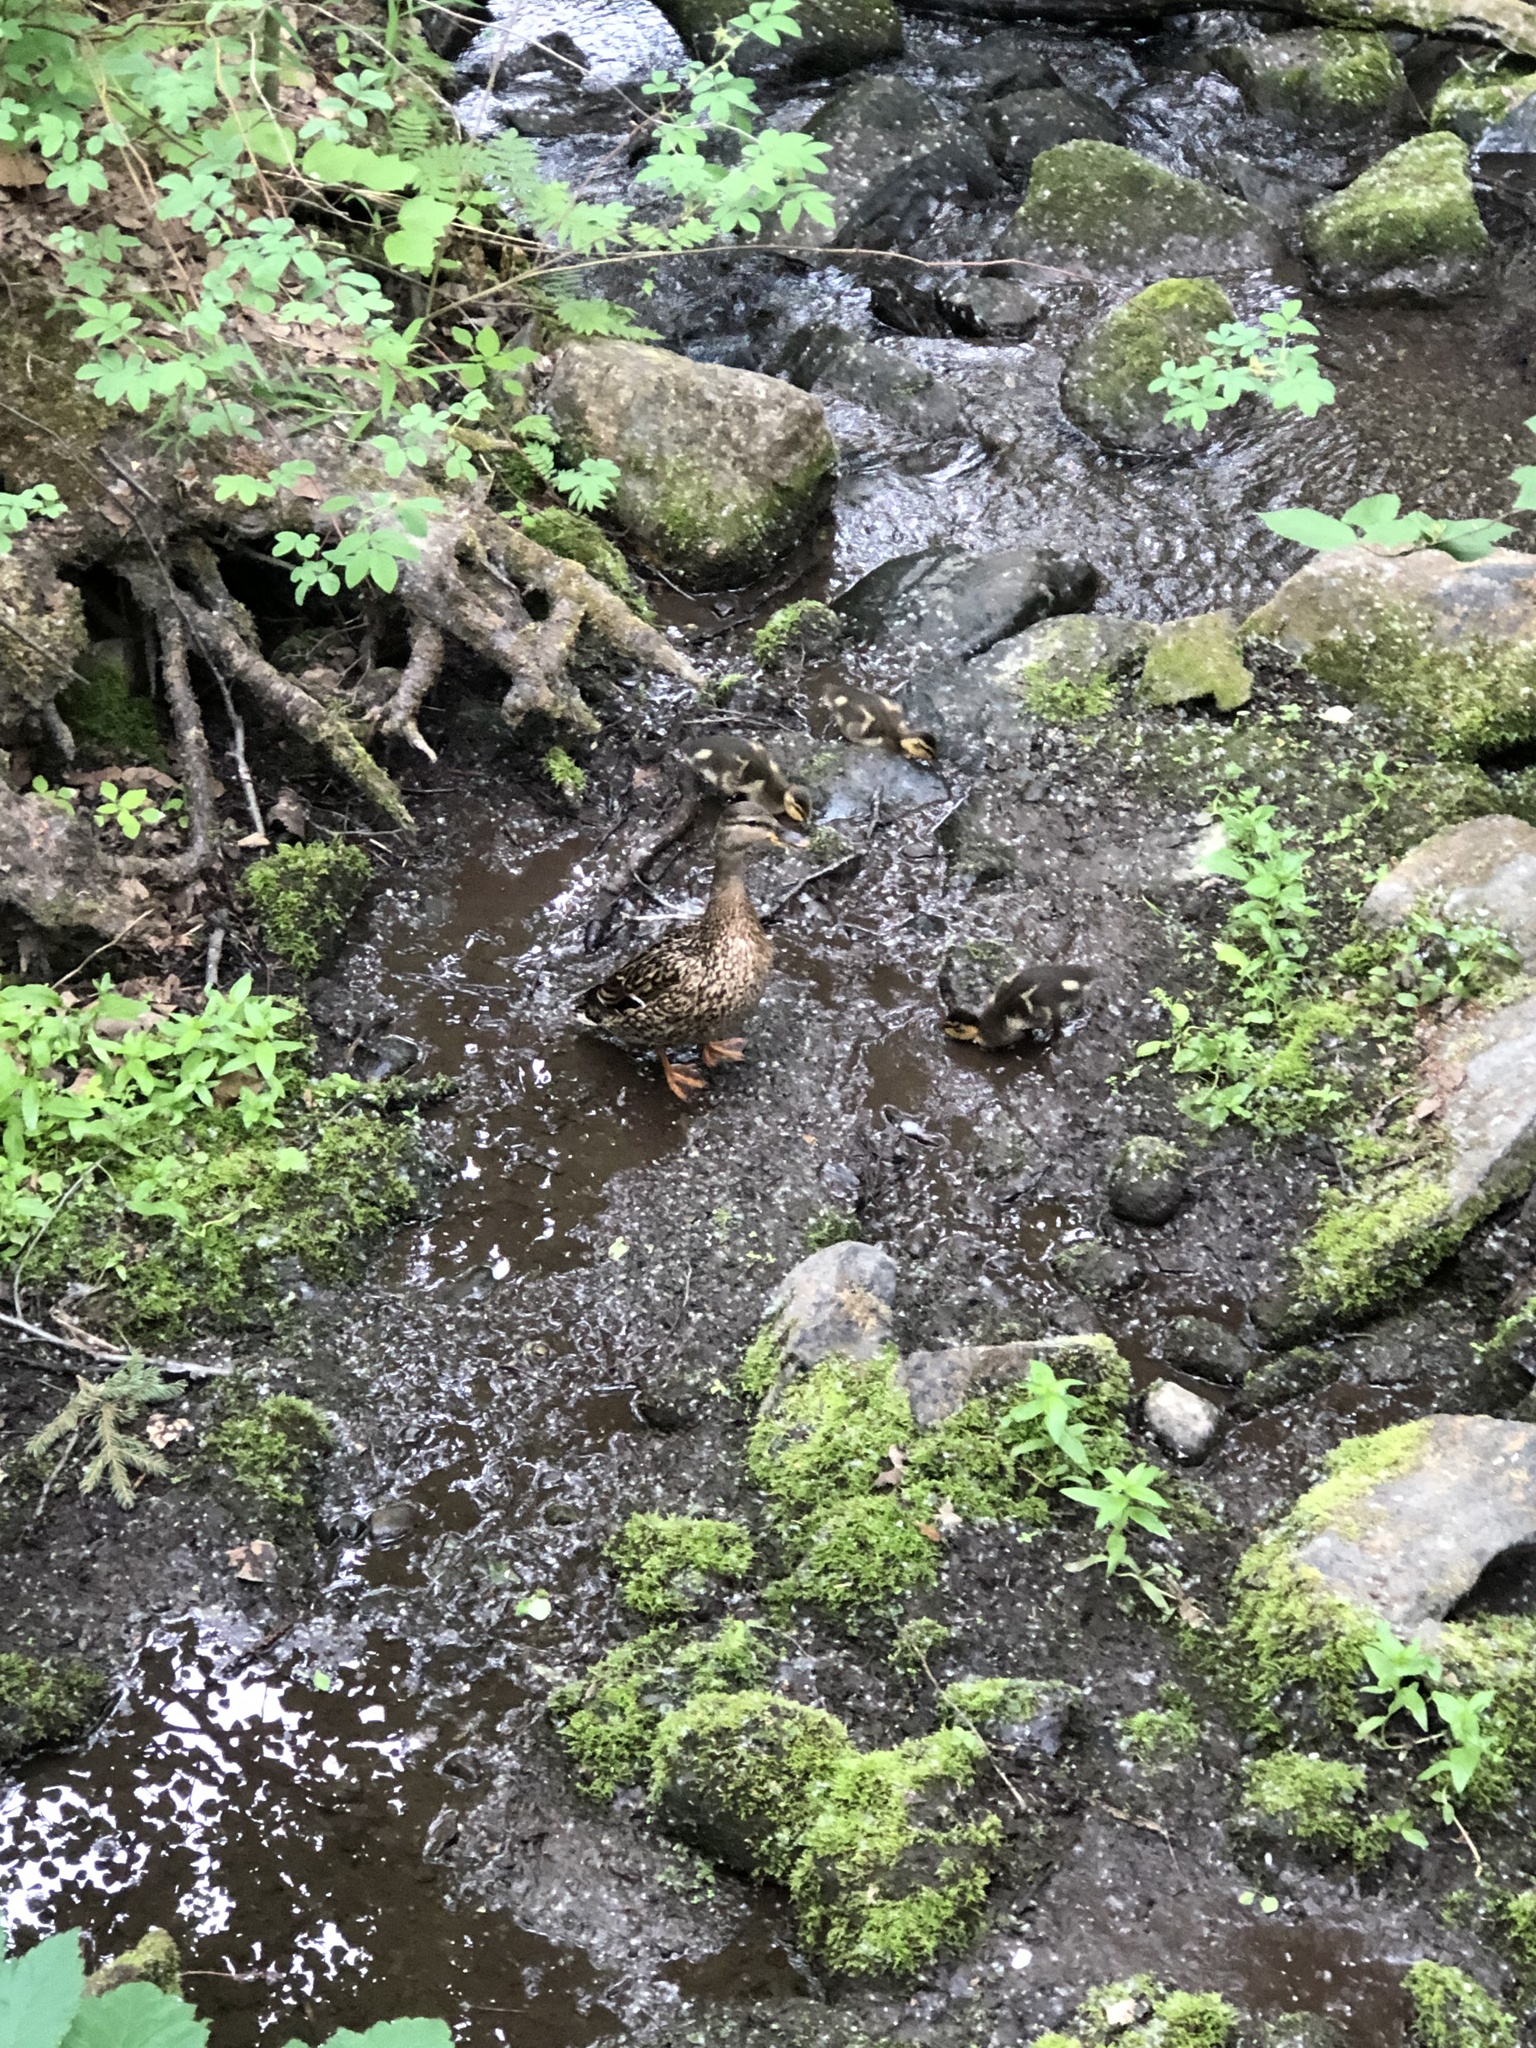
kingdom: Animalia
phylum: Chordata
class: Aves
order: Anseriformes
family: Anatidae
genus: Anas
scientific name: Anas platyrhynchos
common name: Mallard
